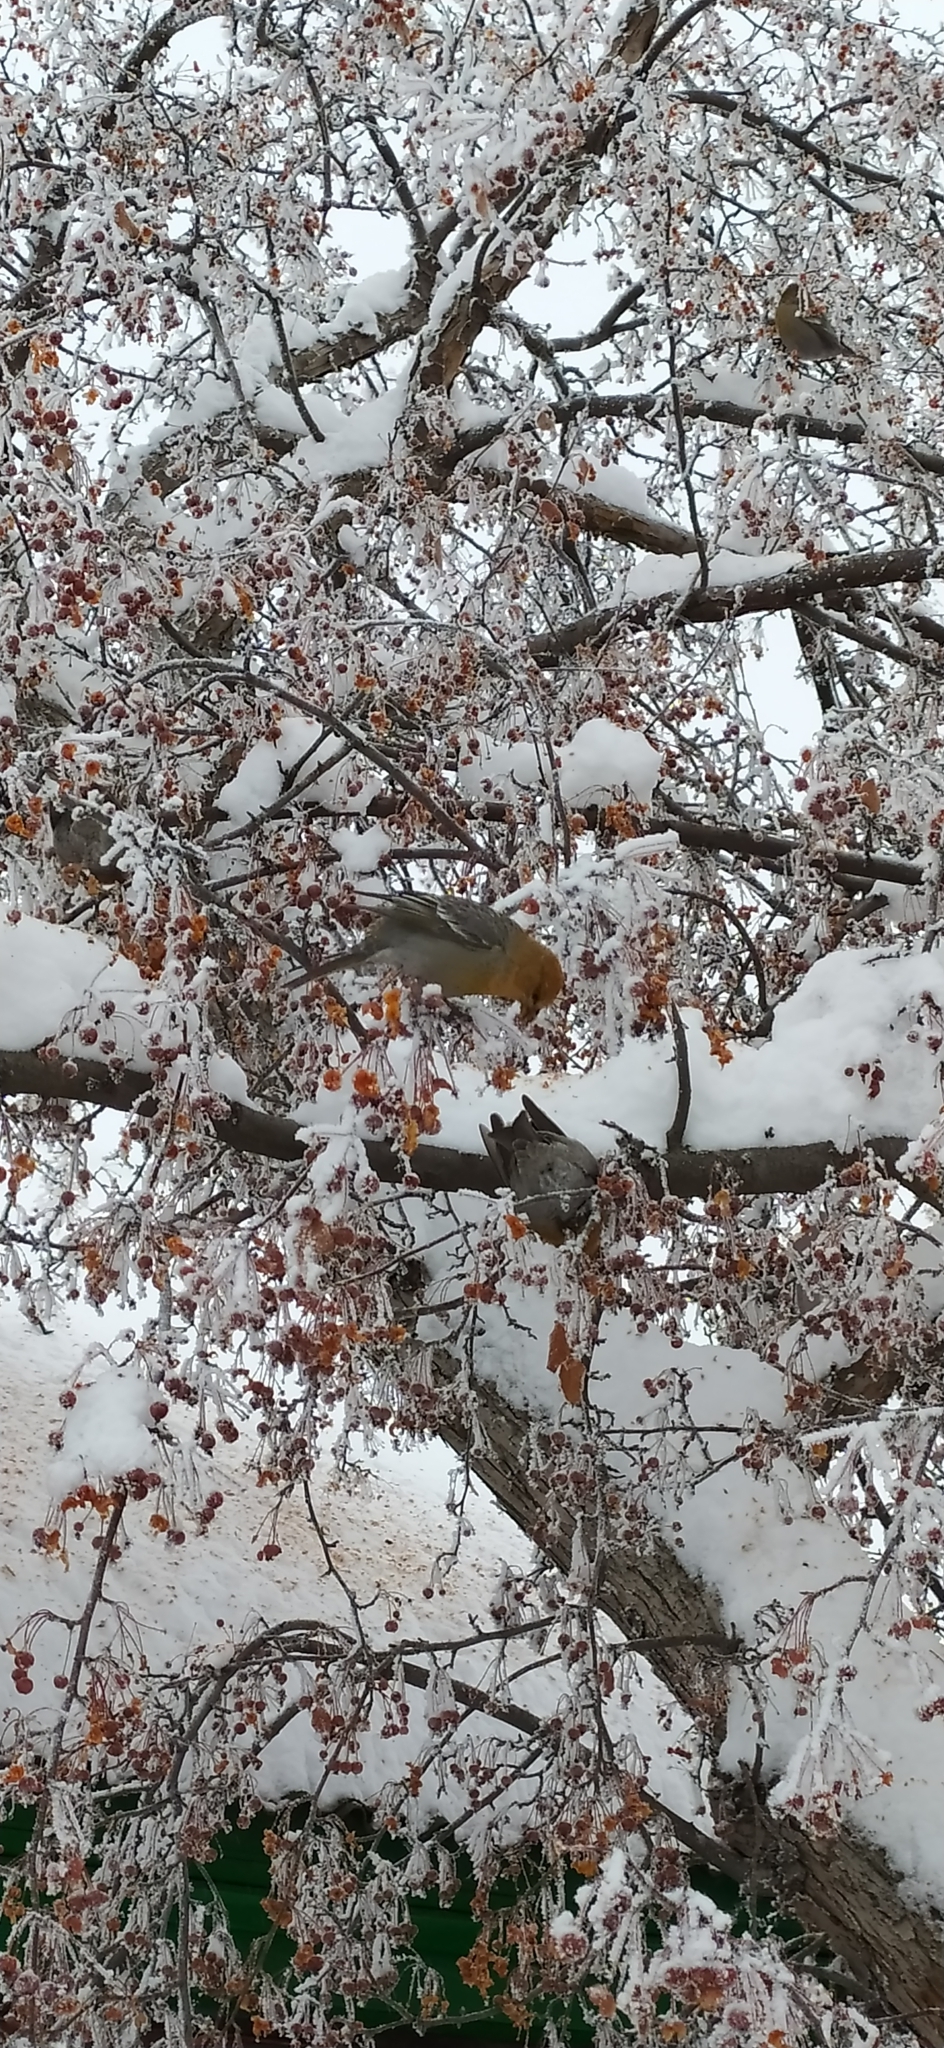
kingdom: Animalia
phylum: Chordata
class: Aves
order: Passeriformes
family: Fringillidae
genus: Pinicola
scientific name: Pinicola enucleator
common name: Pine grosbeak
